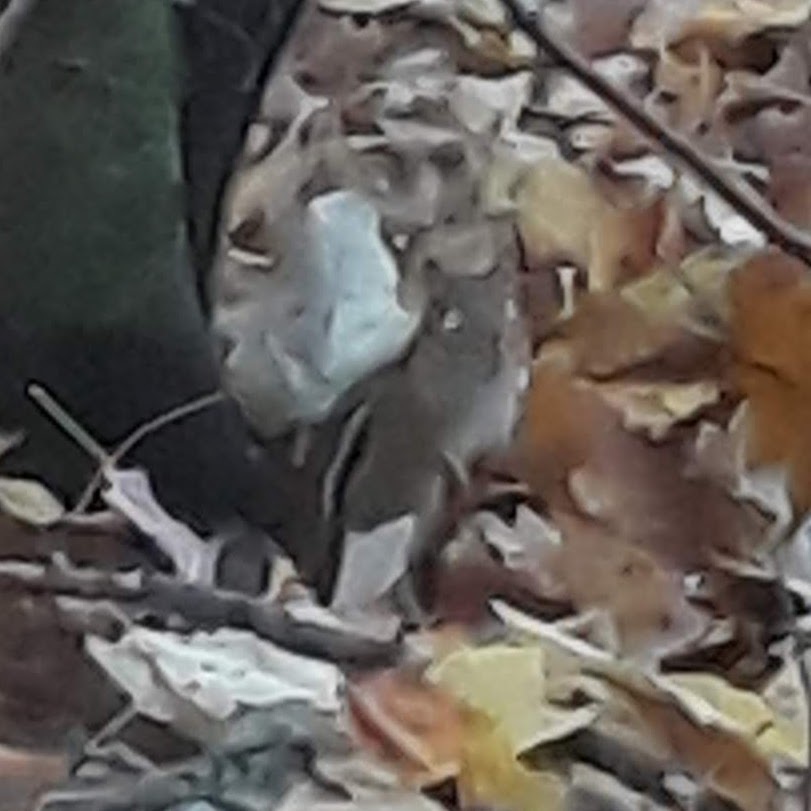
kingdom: Animalia
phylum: Chordata
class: Mammalia
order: Rodentia
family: Sciuridae
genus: Tamias
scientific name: Tamias striatus
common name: Eastern chipmunk
